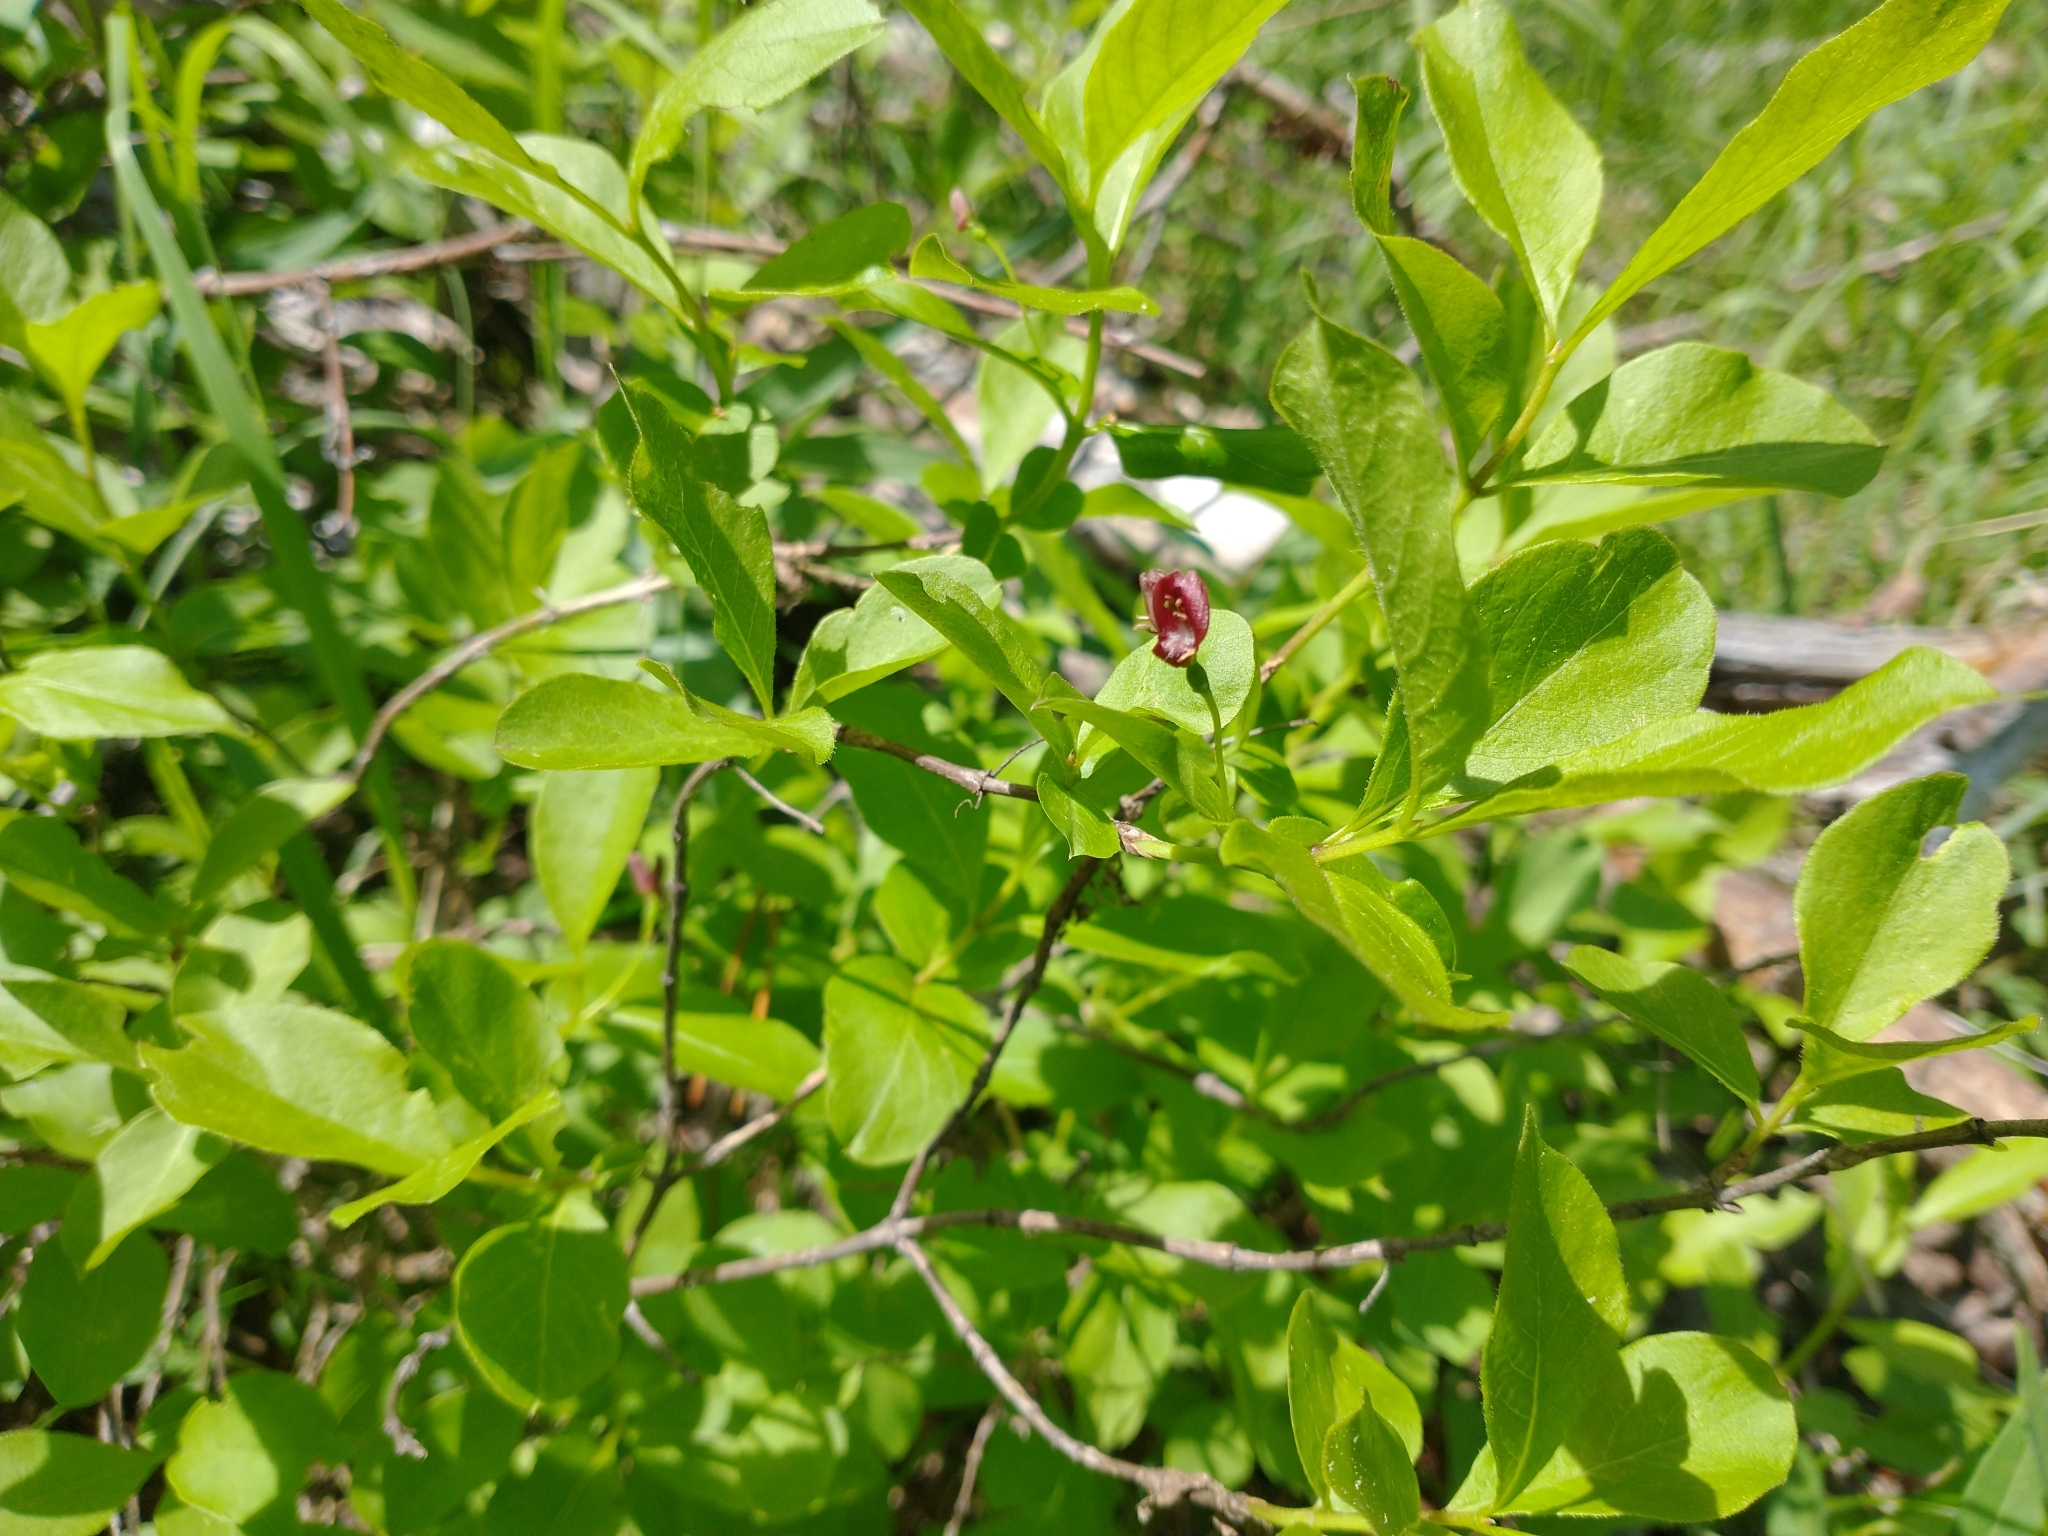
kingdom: Plantae
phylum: Tracheophyta
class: Magnoliopsida
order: Dipsacales
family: Caprifoliaceae
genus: Lonicera
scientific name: Lonicera conjugialis
